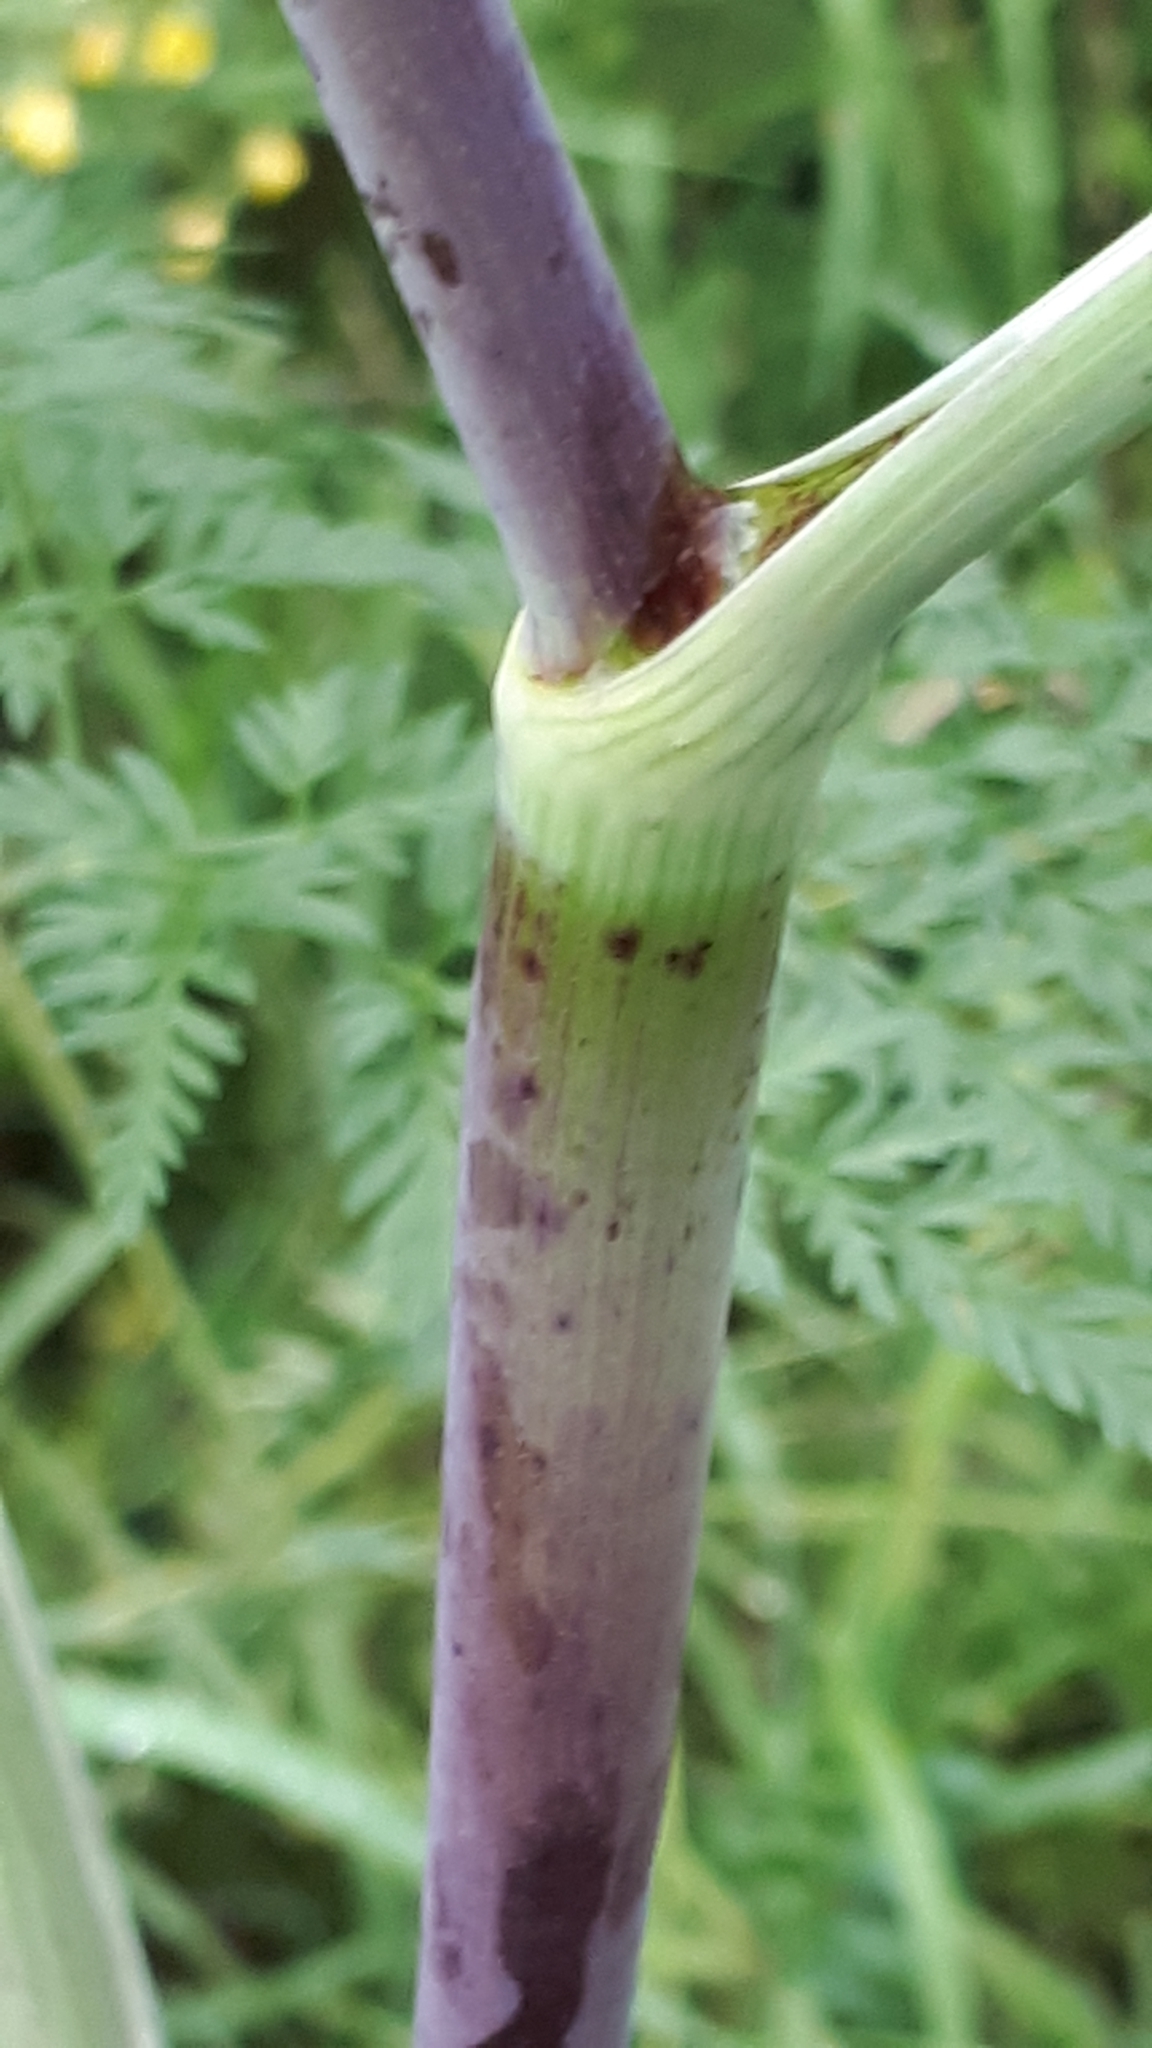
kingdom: Plantae
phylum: Tracheophyta
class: Magnoliopsida
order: Apiales
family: Apiaceae
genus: Conium
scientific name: Conium maculatum
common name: Hemlock
